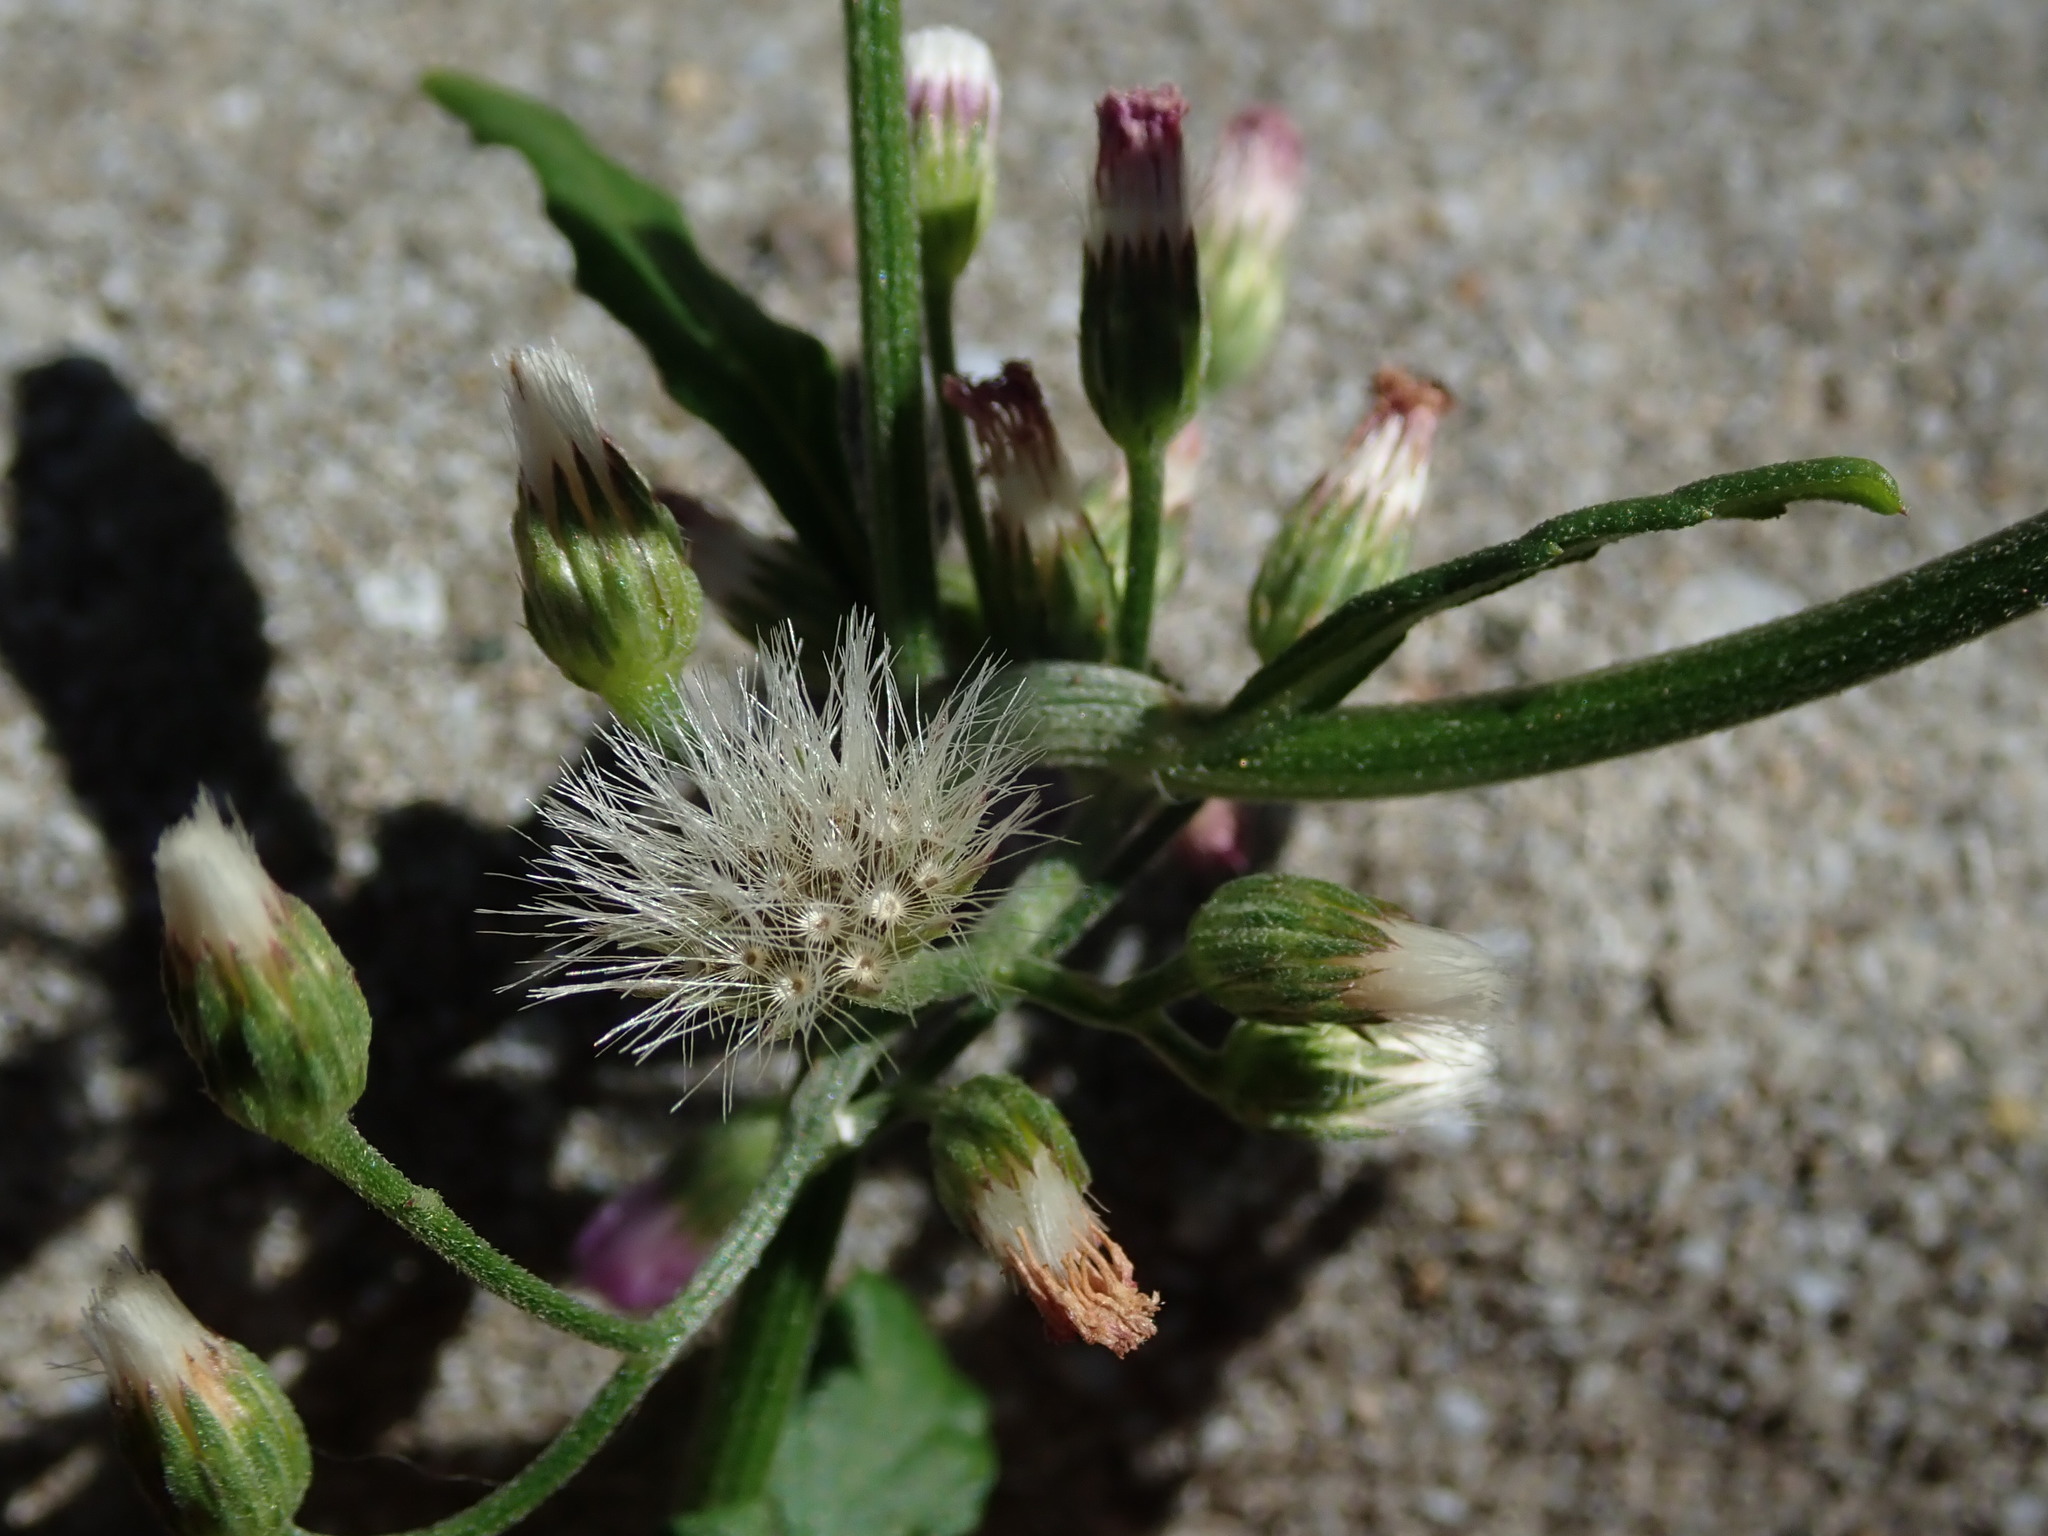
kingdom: Plantae
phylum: Tracheophyta
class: Magnoliopsida
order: Asterales
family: Asteraceae
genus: Cyanthillium
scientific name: Cyanthillium cinereum
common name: Little ironweed
